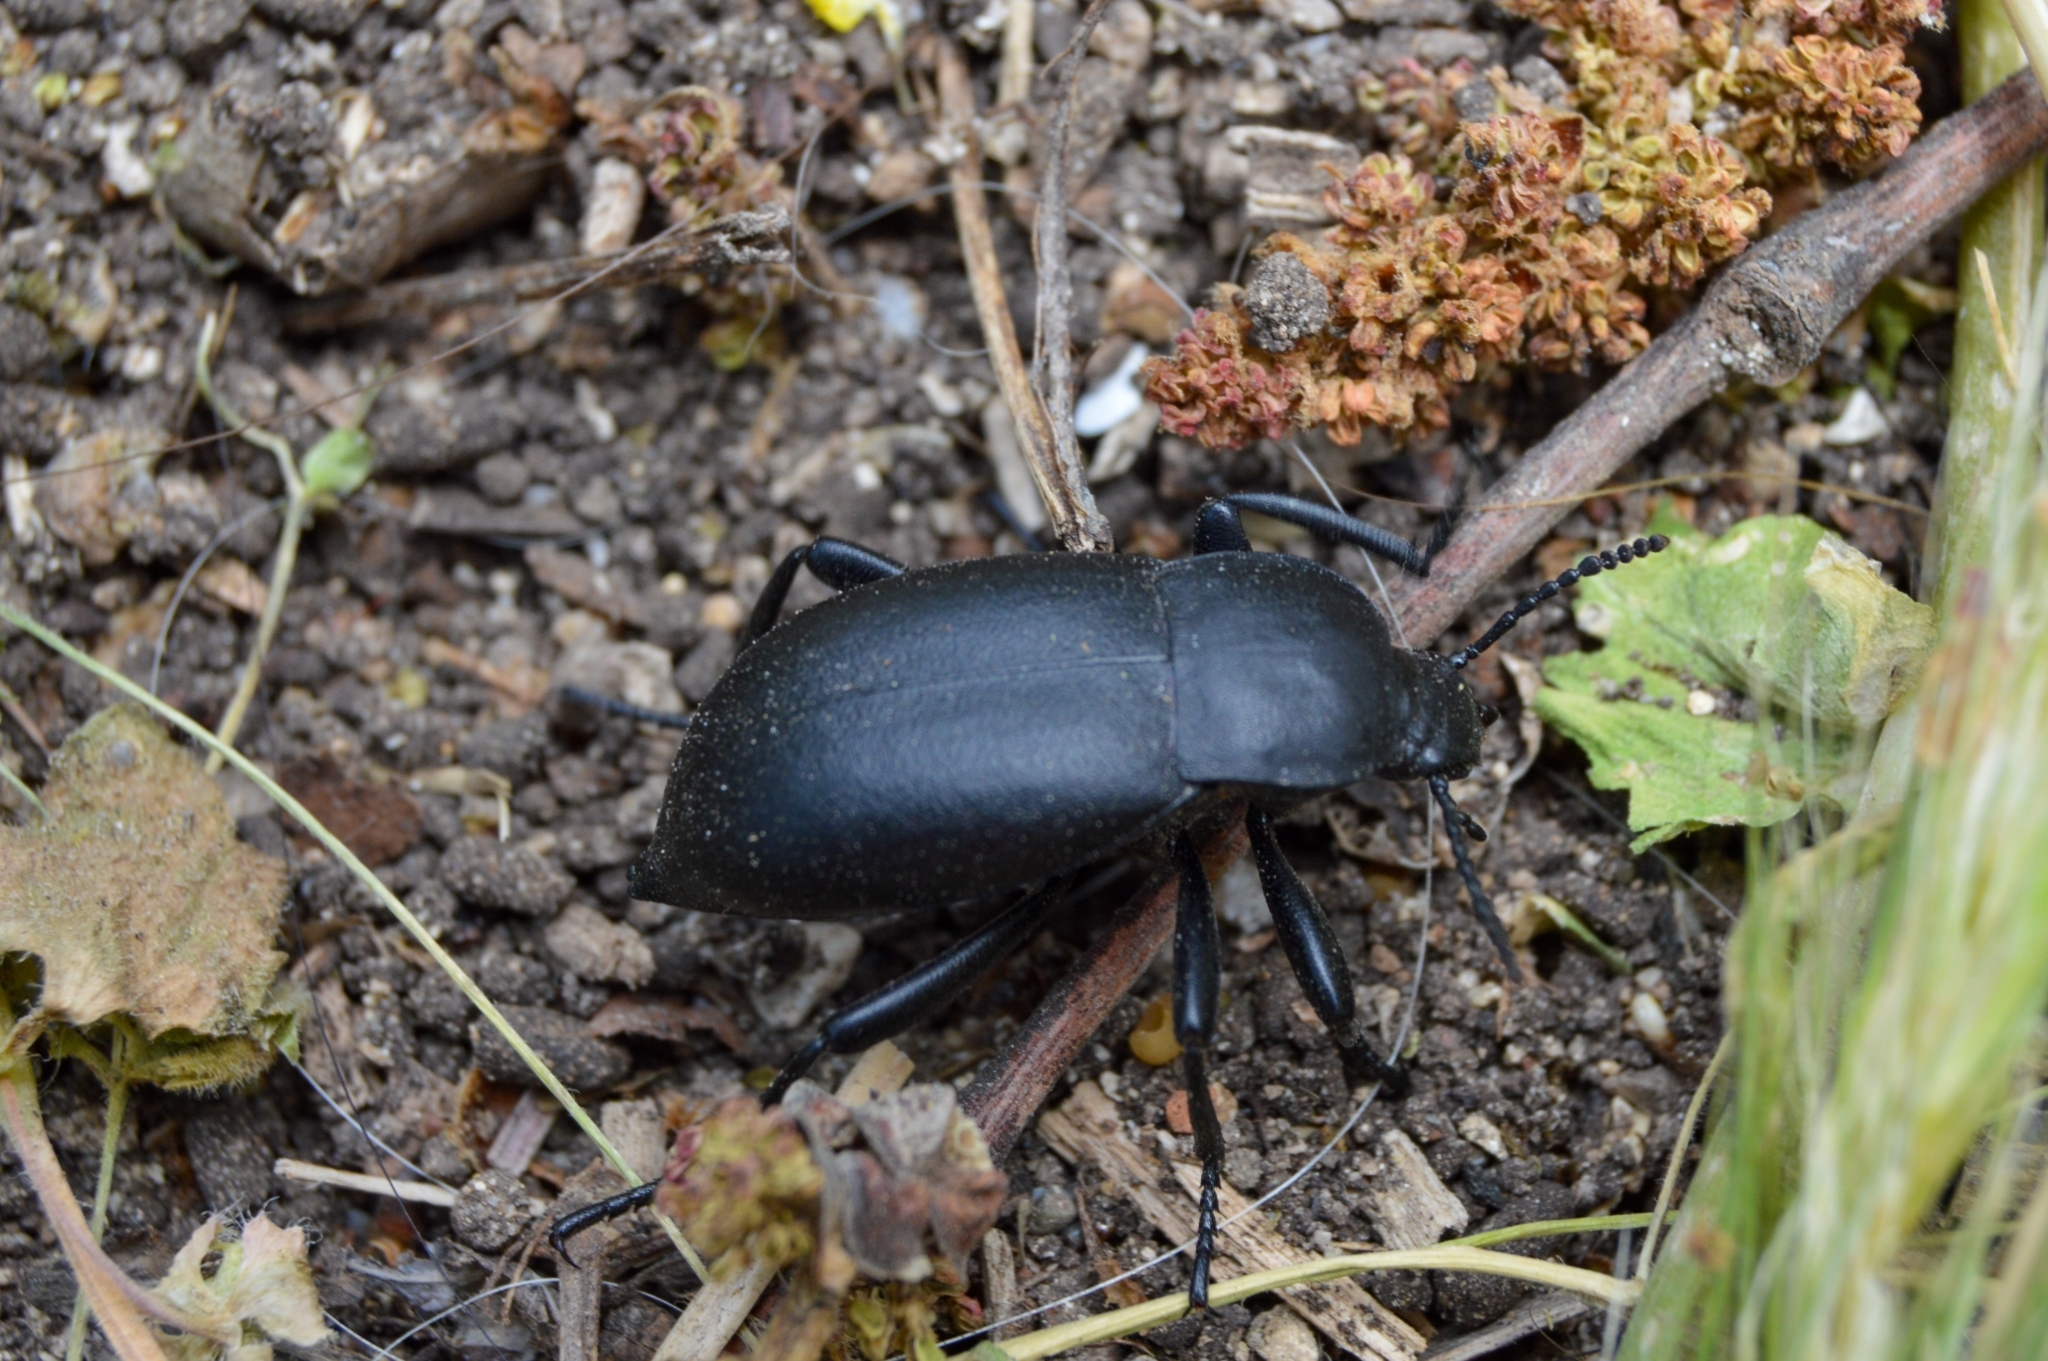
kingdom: Animalia
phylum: Arthropoda
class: Insecta
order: Coleoptera
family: Tenebrionidae
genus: Blaps
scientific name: Blaps mortisaga
